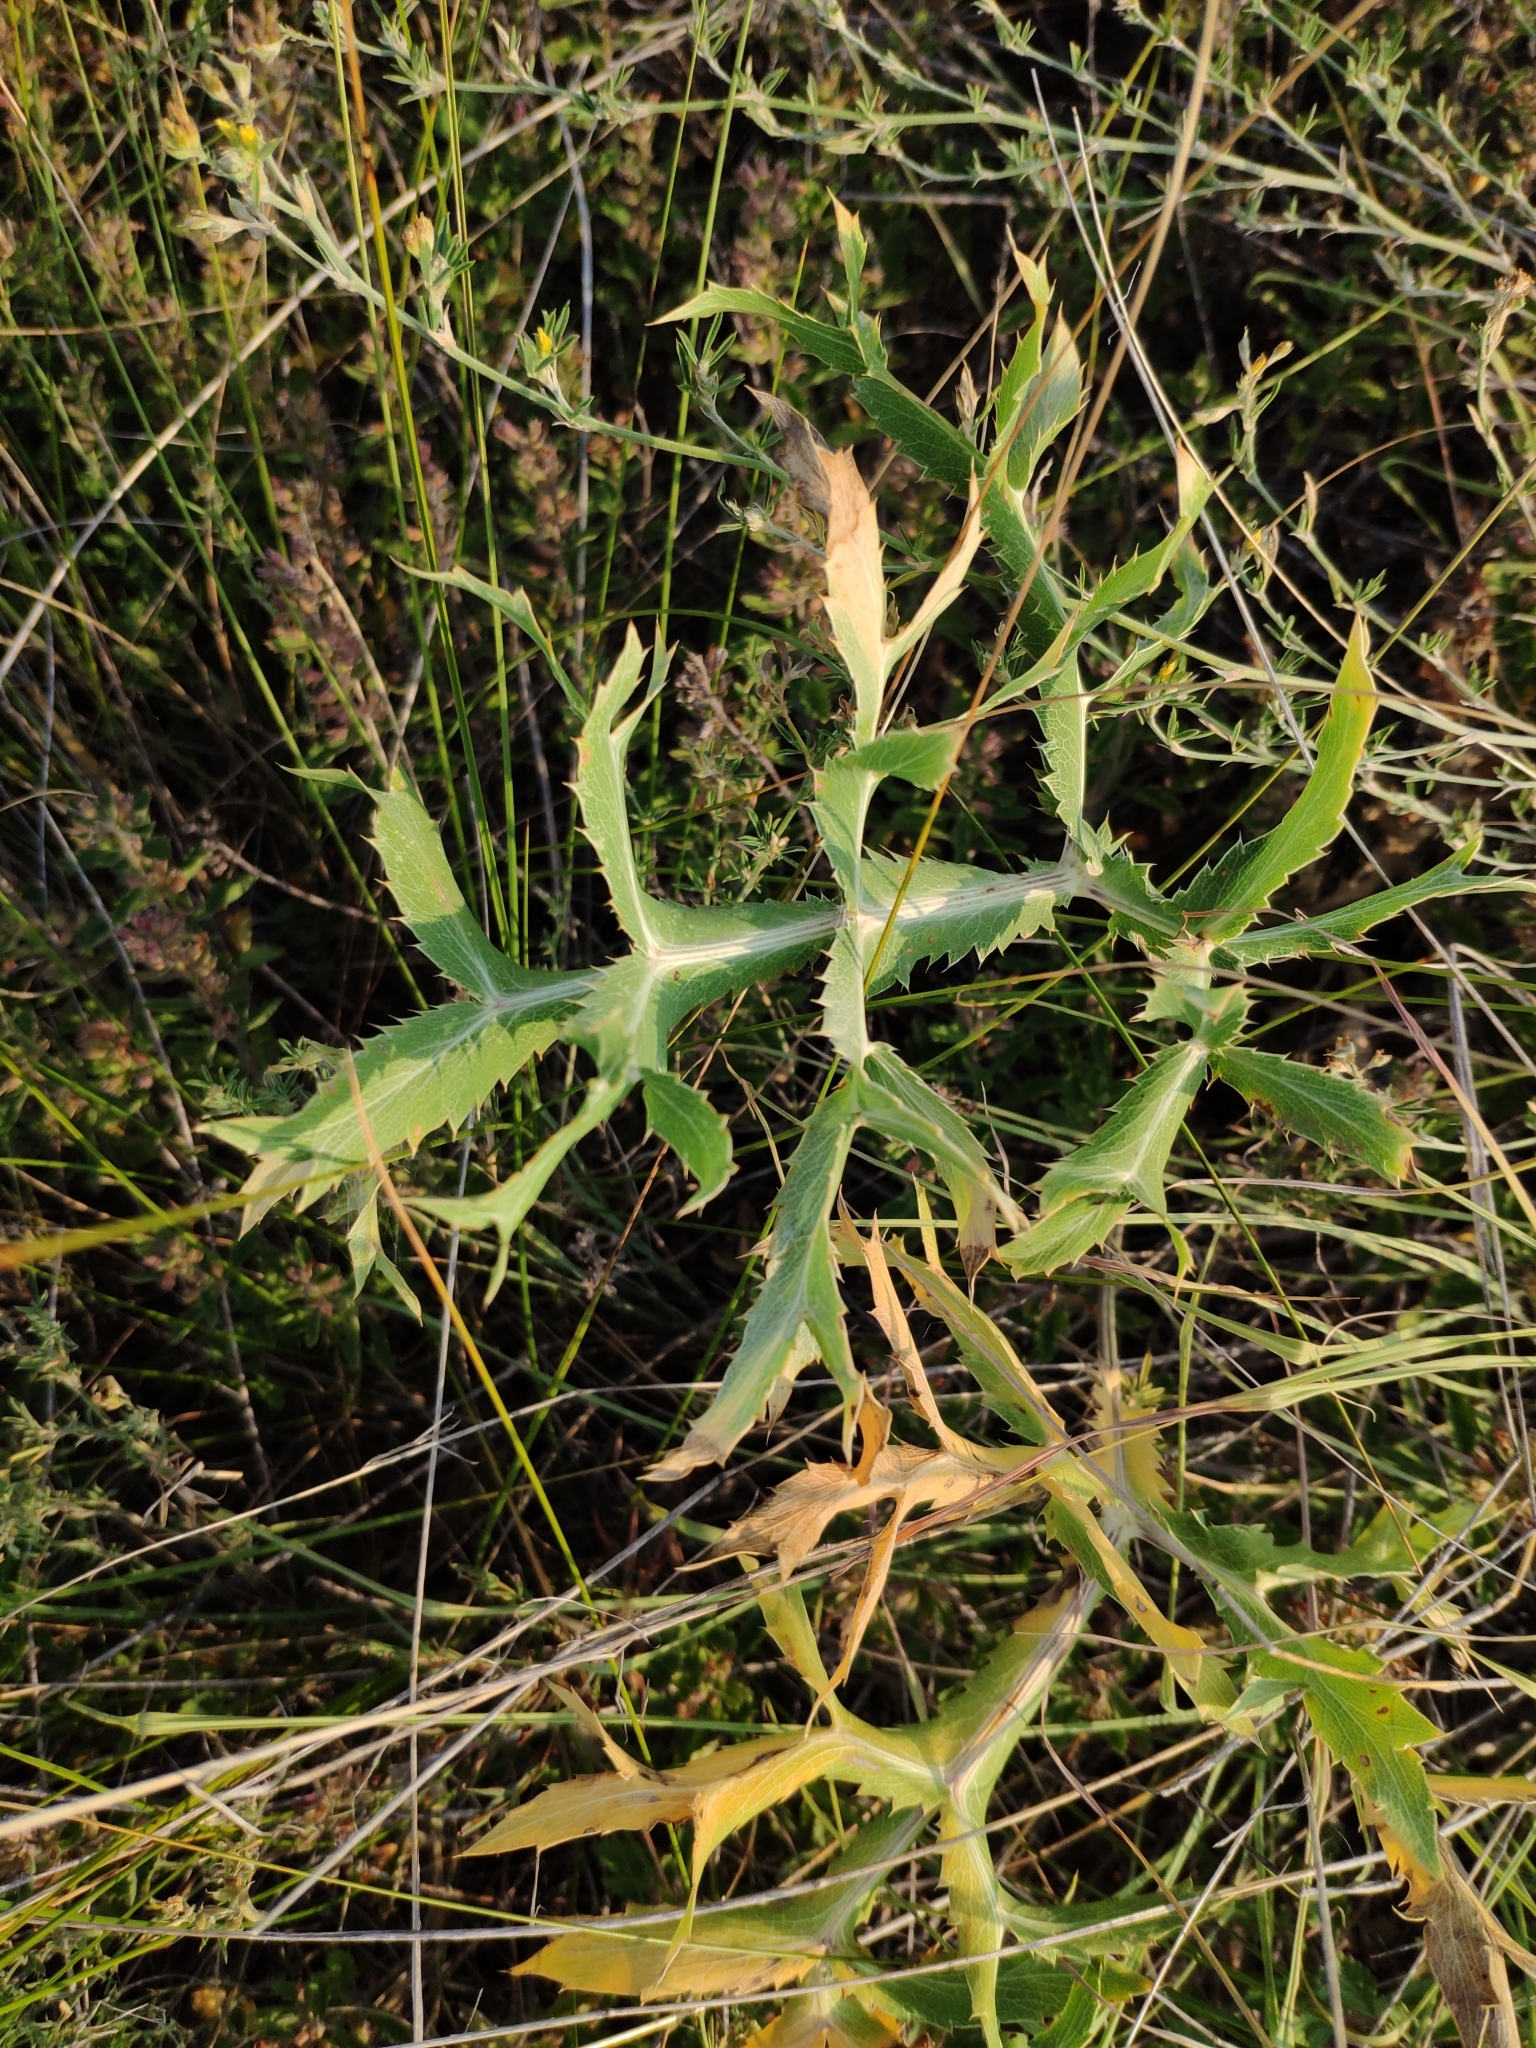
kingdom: Plantae
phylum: Tracheophyta
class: Magnoliopsida
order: Apiales
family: Apiaceae
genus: Eryngium
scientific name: Eryngium campestre
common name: Field eryngo
